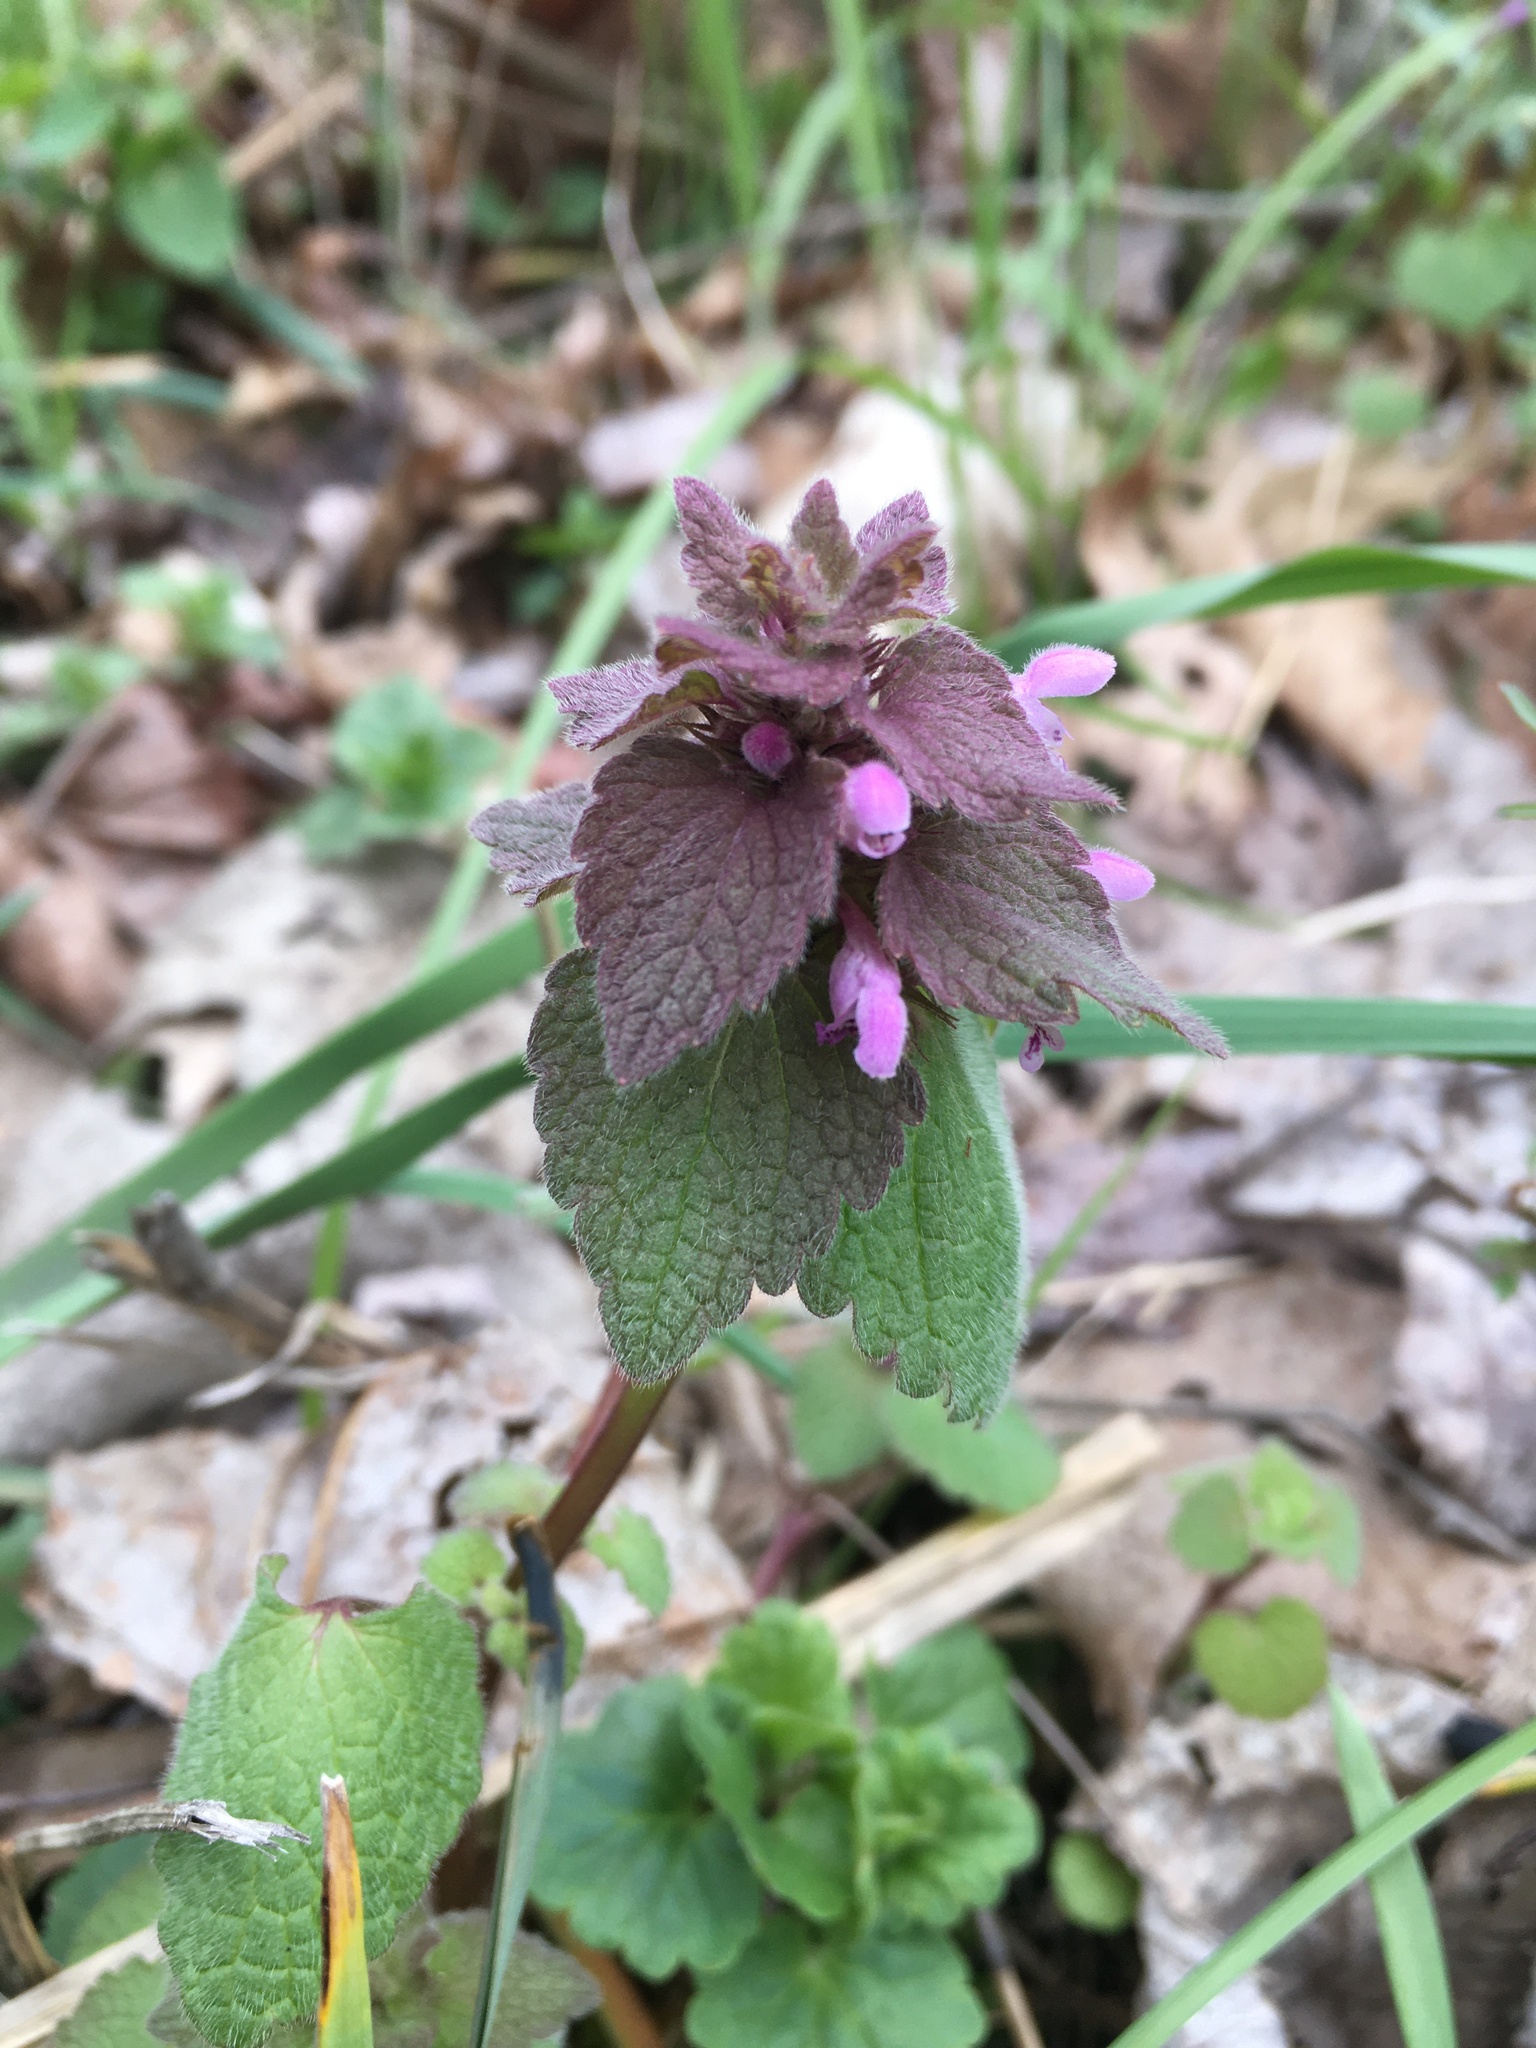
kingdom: Plantae
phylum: Tracheophyta
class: Magnoliopsida
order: Lamiales
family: Lamiaceae
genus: Lamium
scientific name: Lamium purpureum
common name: Red dead-nettle
